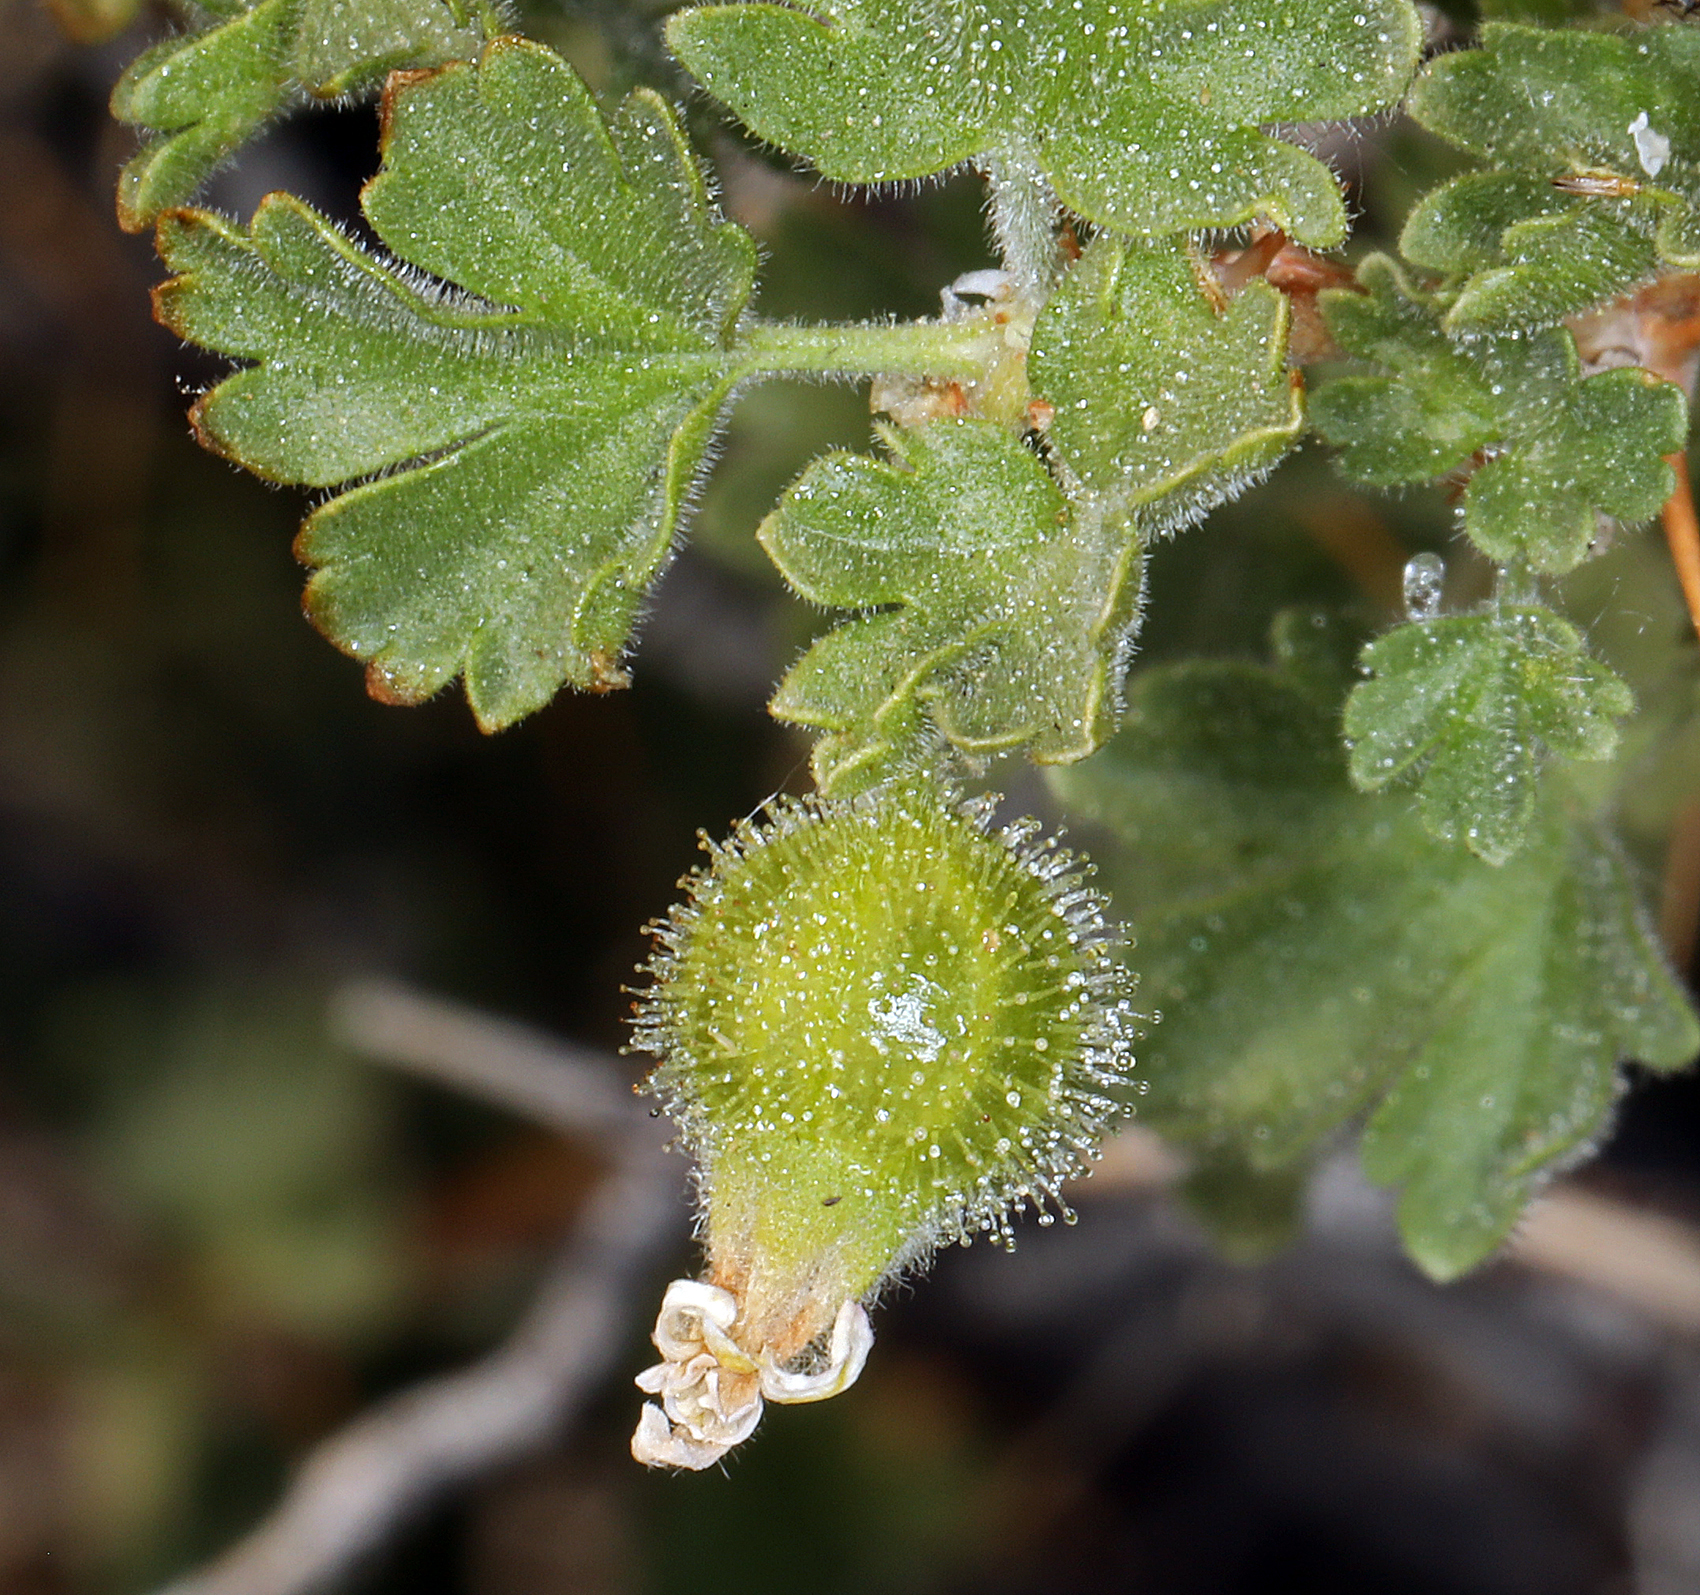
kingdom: Plantae
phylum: Tracheophyta
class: Magnoliopsida
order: Saxifragales
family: Grossulariaceae
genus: Ribes
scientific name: Ribes velutinum
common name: Desert gooseberry
